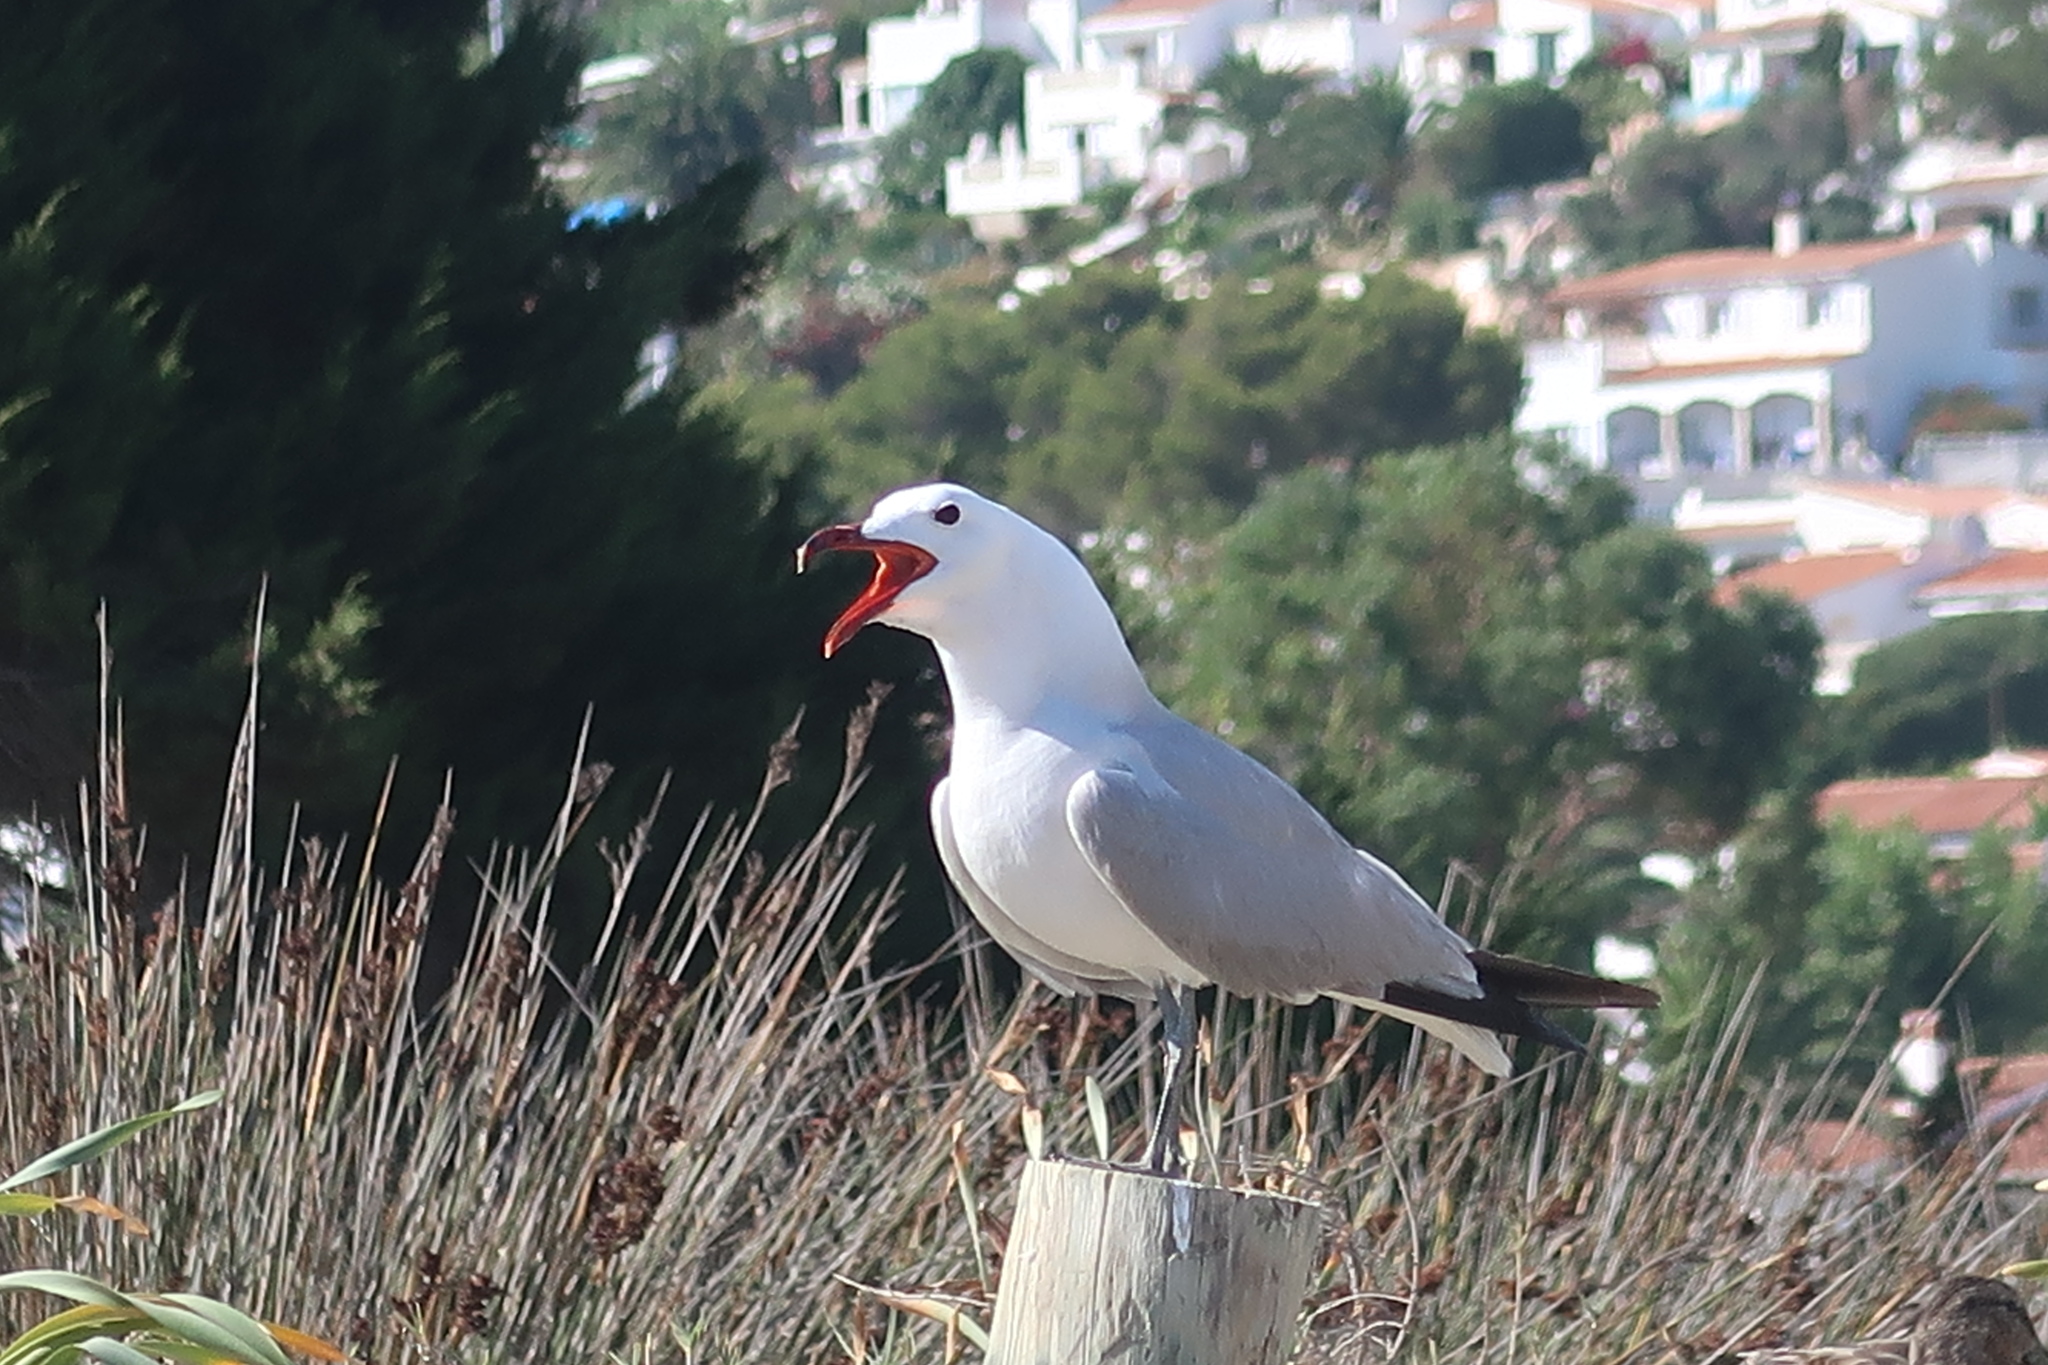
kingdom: Animalia
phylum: Chordata
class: Aves
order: Charadriiformes
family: Laridae
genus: Ichthyaetus
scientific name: Ichthyaetus audouinii
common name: Audouin's gull
